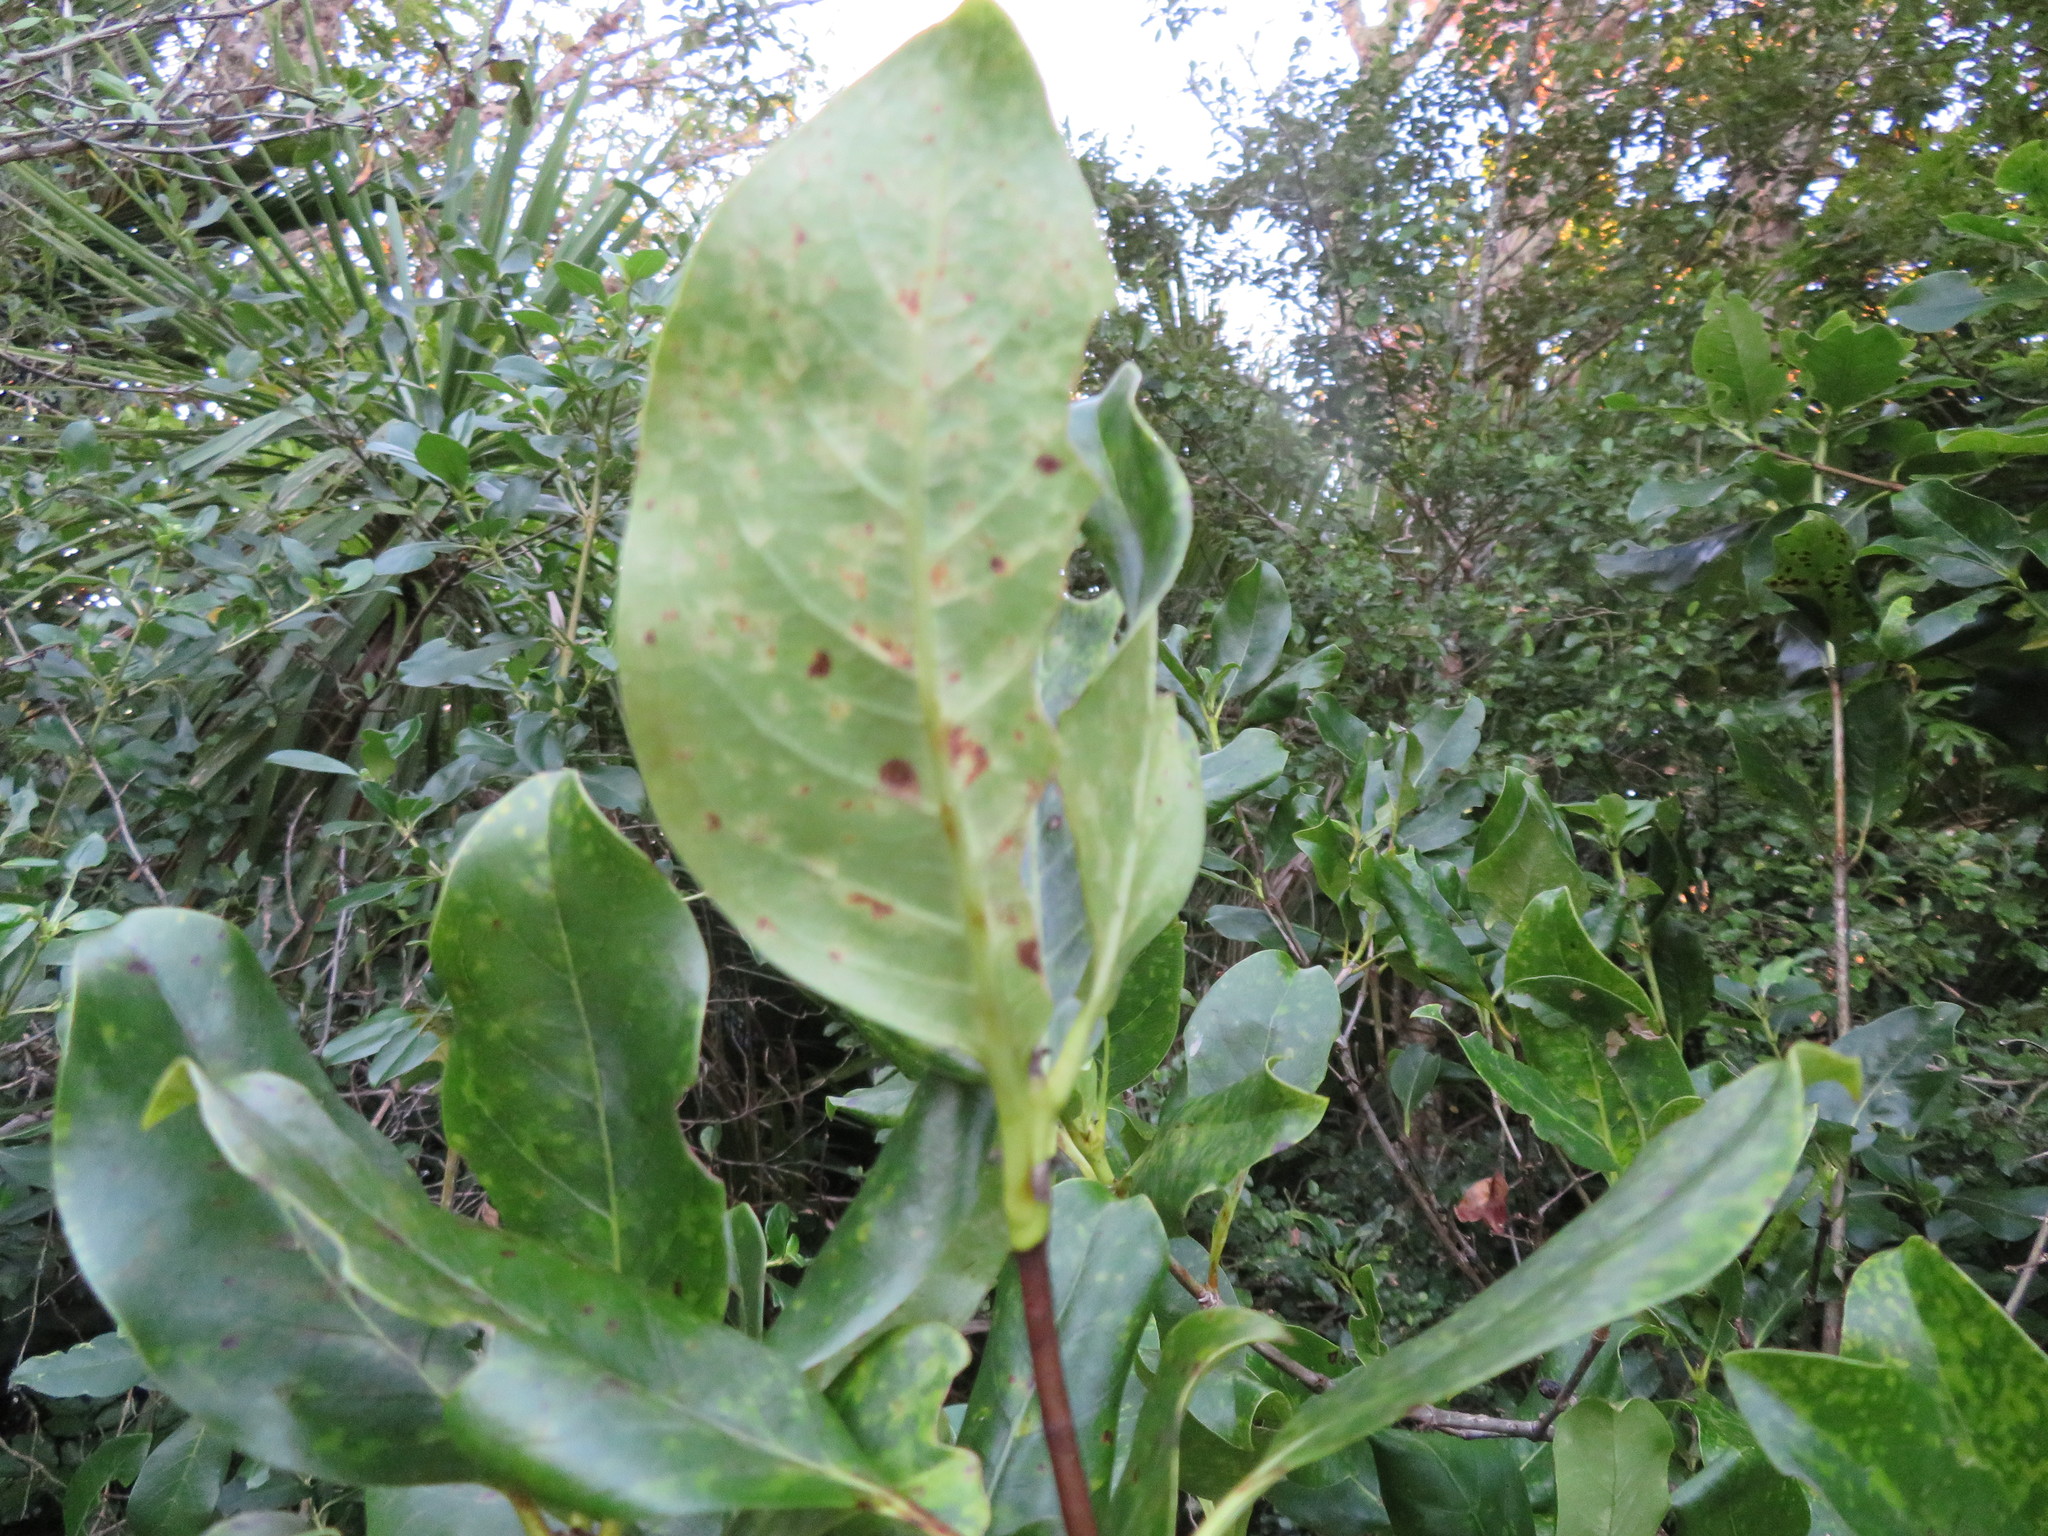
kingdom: Plantae
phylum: Tracheophyta
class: Magnoliopsida
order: Gentianales
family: Rubiaceae
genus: Coprosma
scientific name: Coprosma macrocarpa
